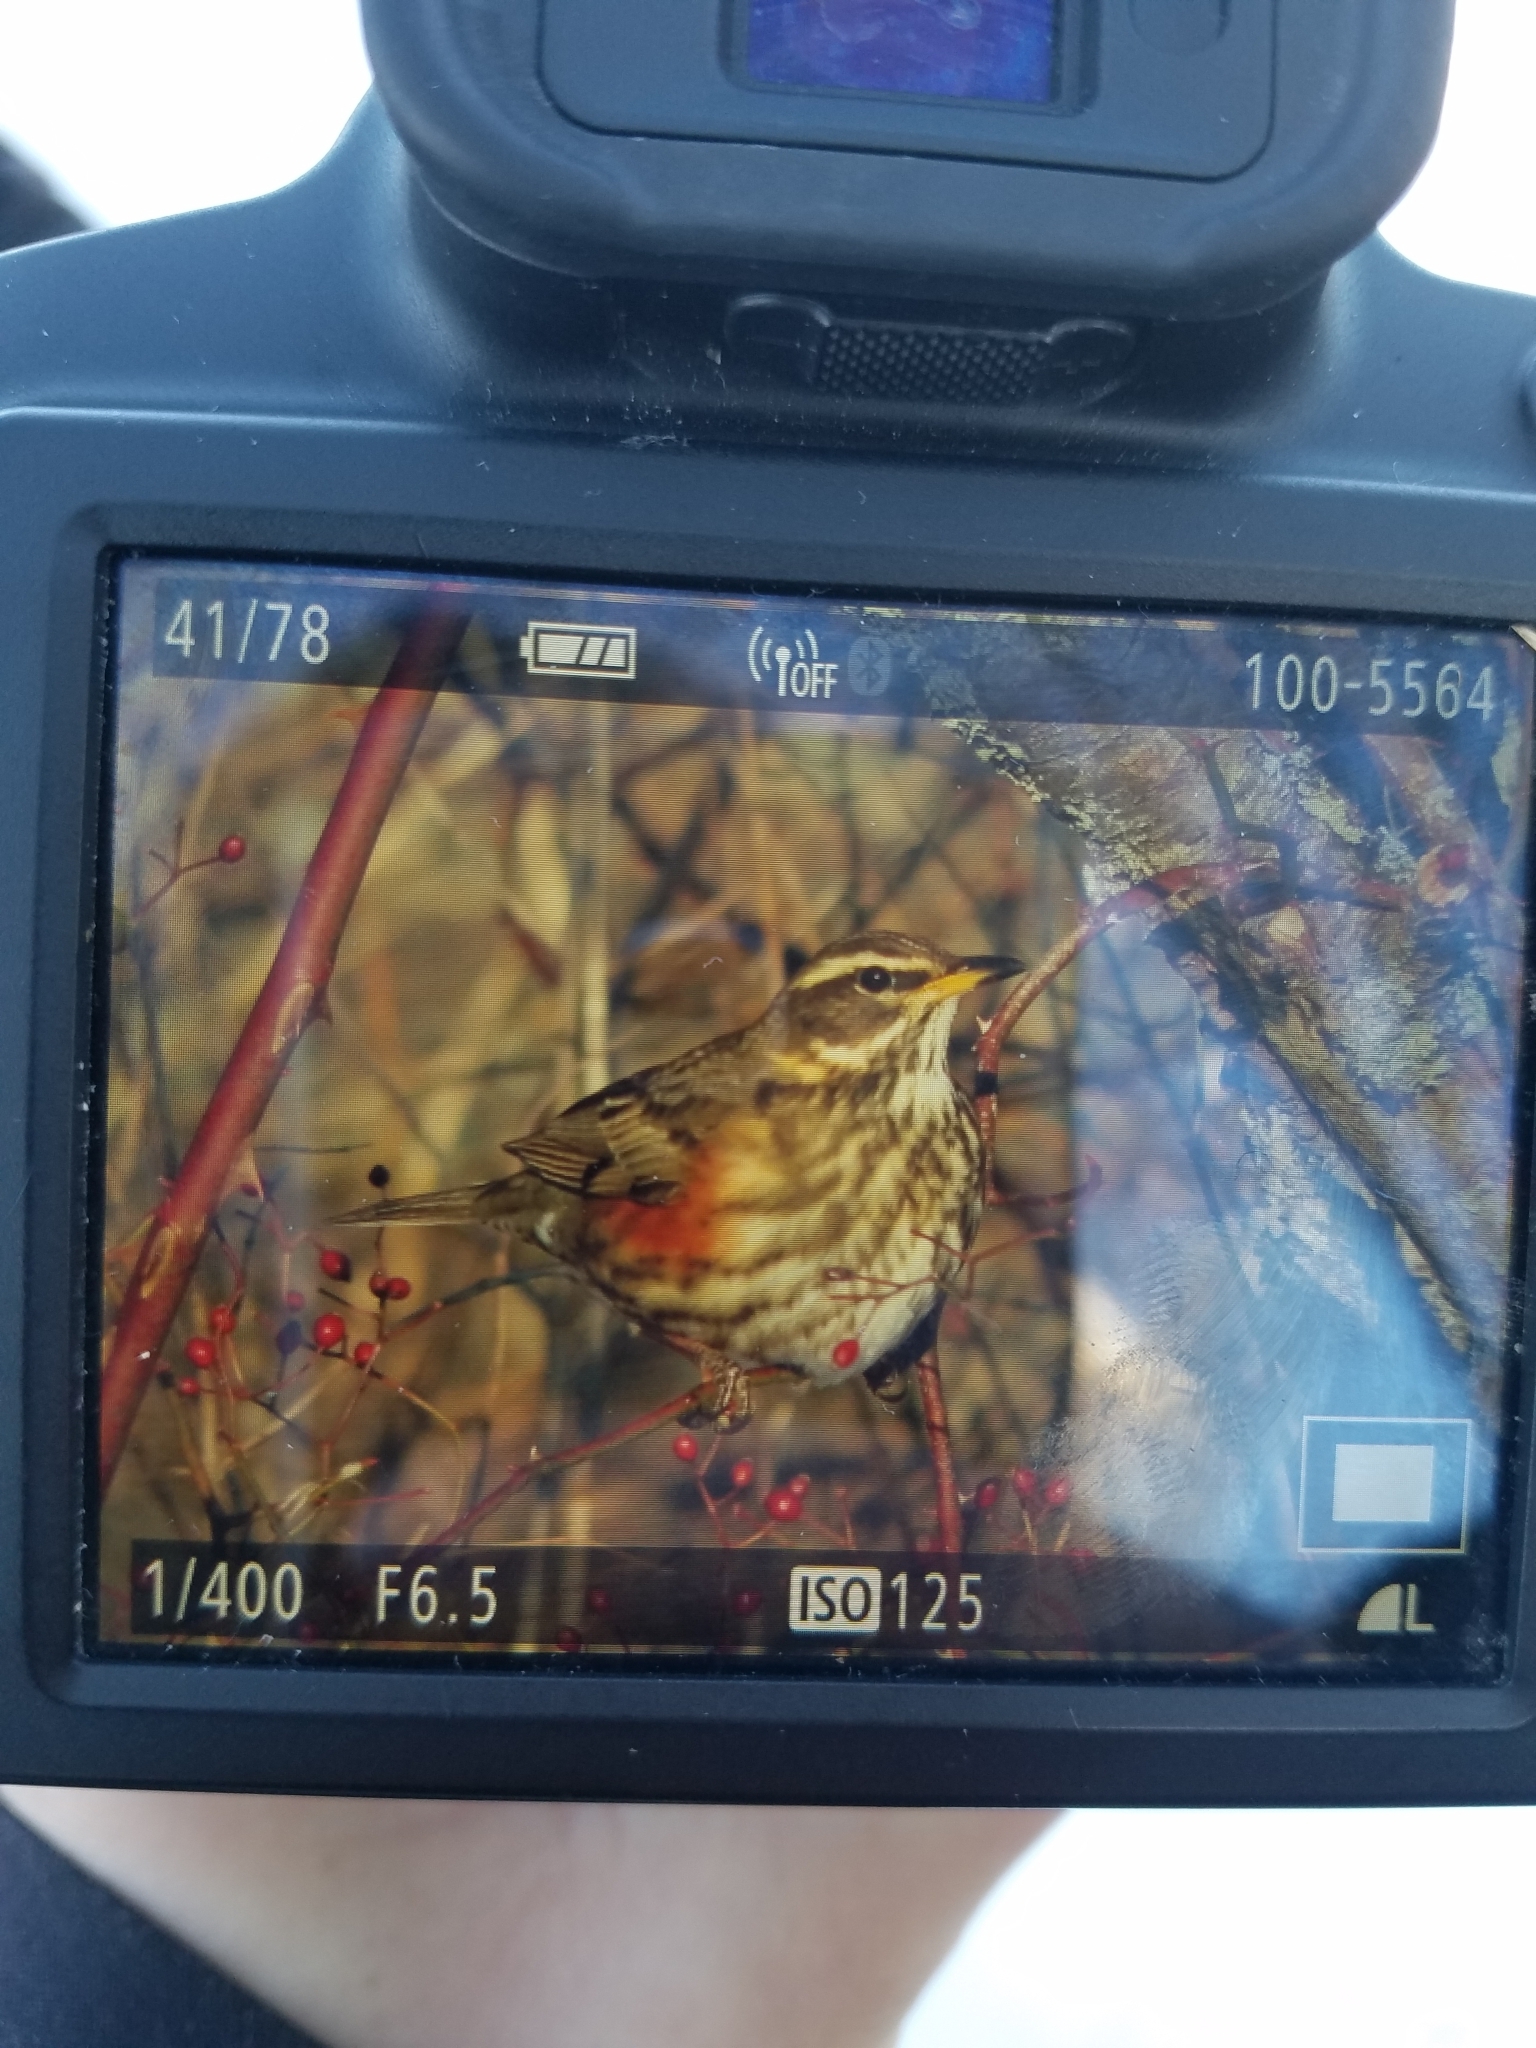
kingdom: Animalia
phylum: Chordata
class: Aves
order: Passeriformes
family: Turdidae
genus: Turdus
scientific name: Turdus iliacus
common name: Redwing
